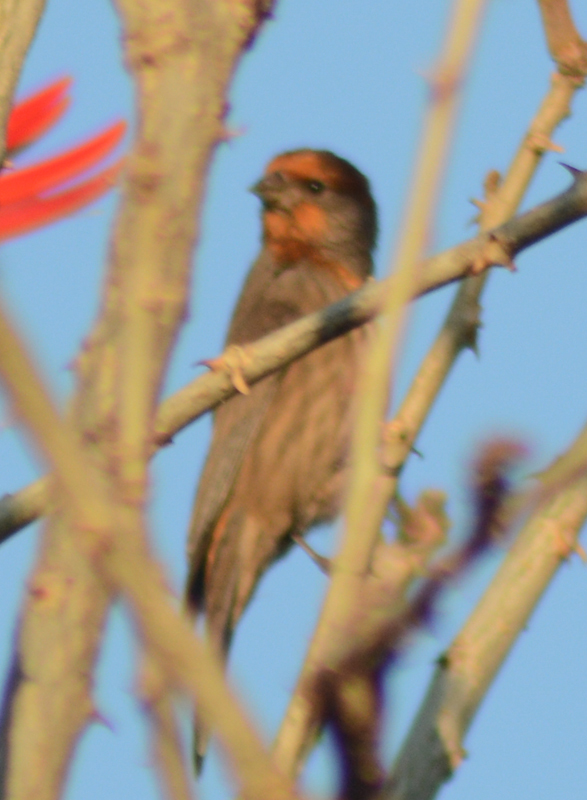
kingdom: Animalia
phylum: Chordata
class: Aves
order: Passeriformes
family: Fringillidae
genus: Haemorhous
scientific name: Haemorhous mexicanus
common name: House finch
